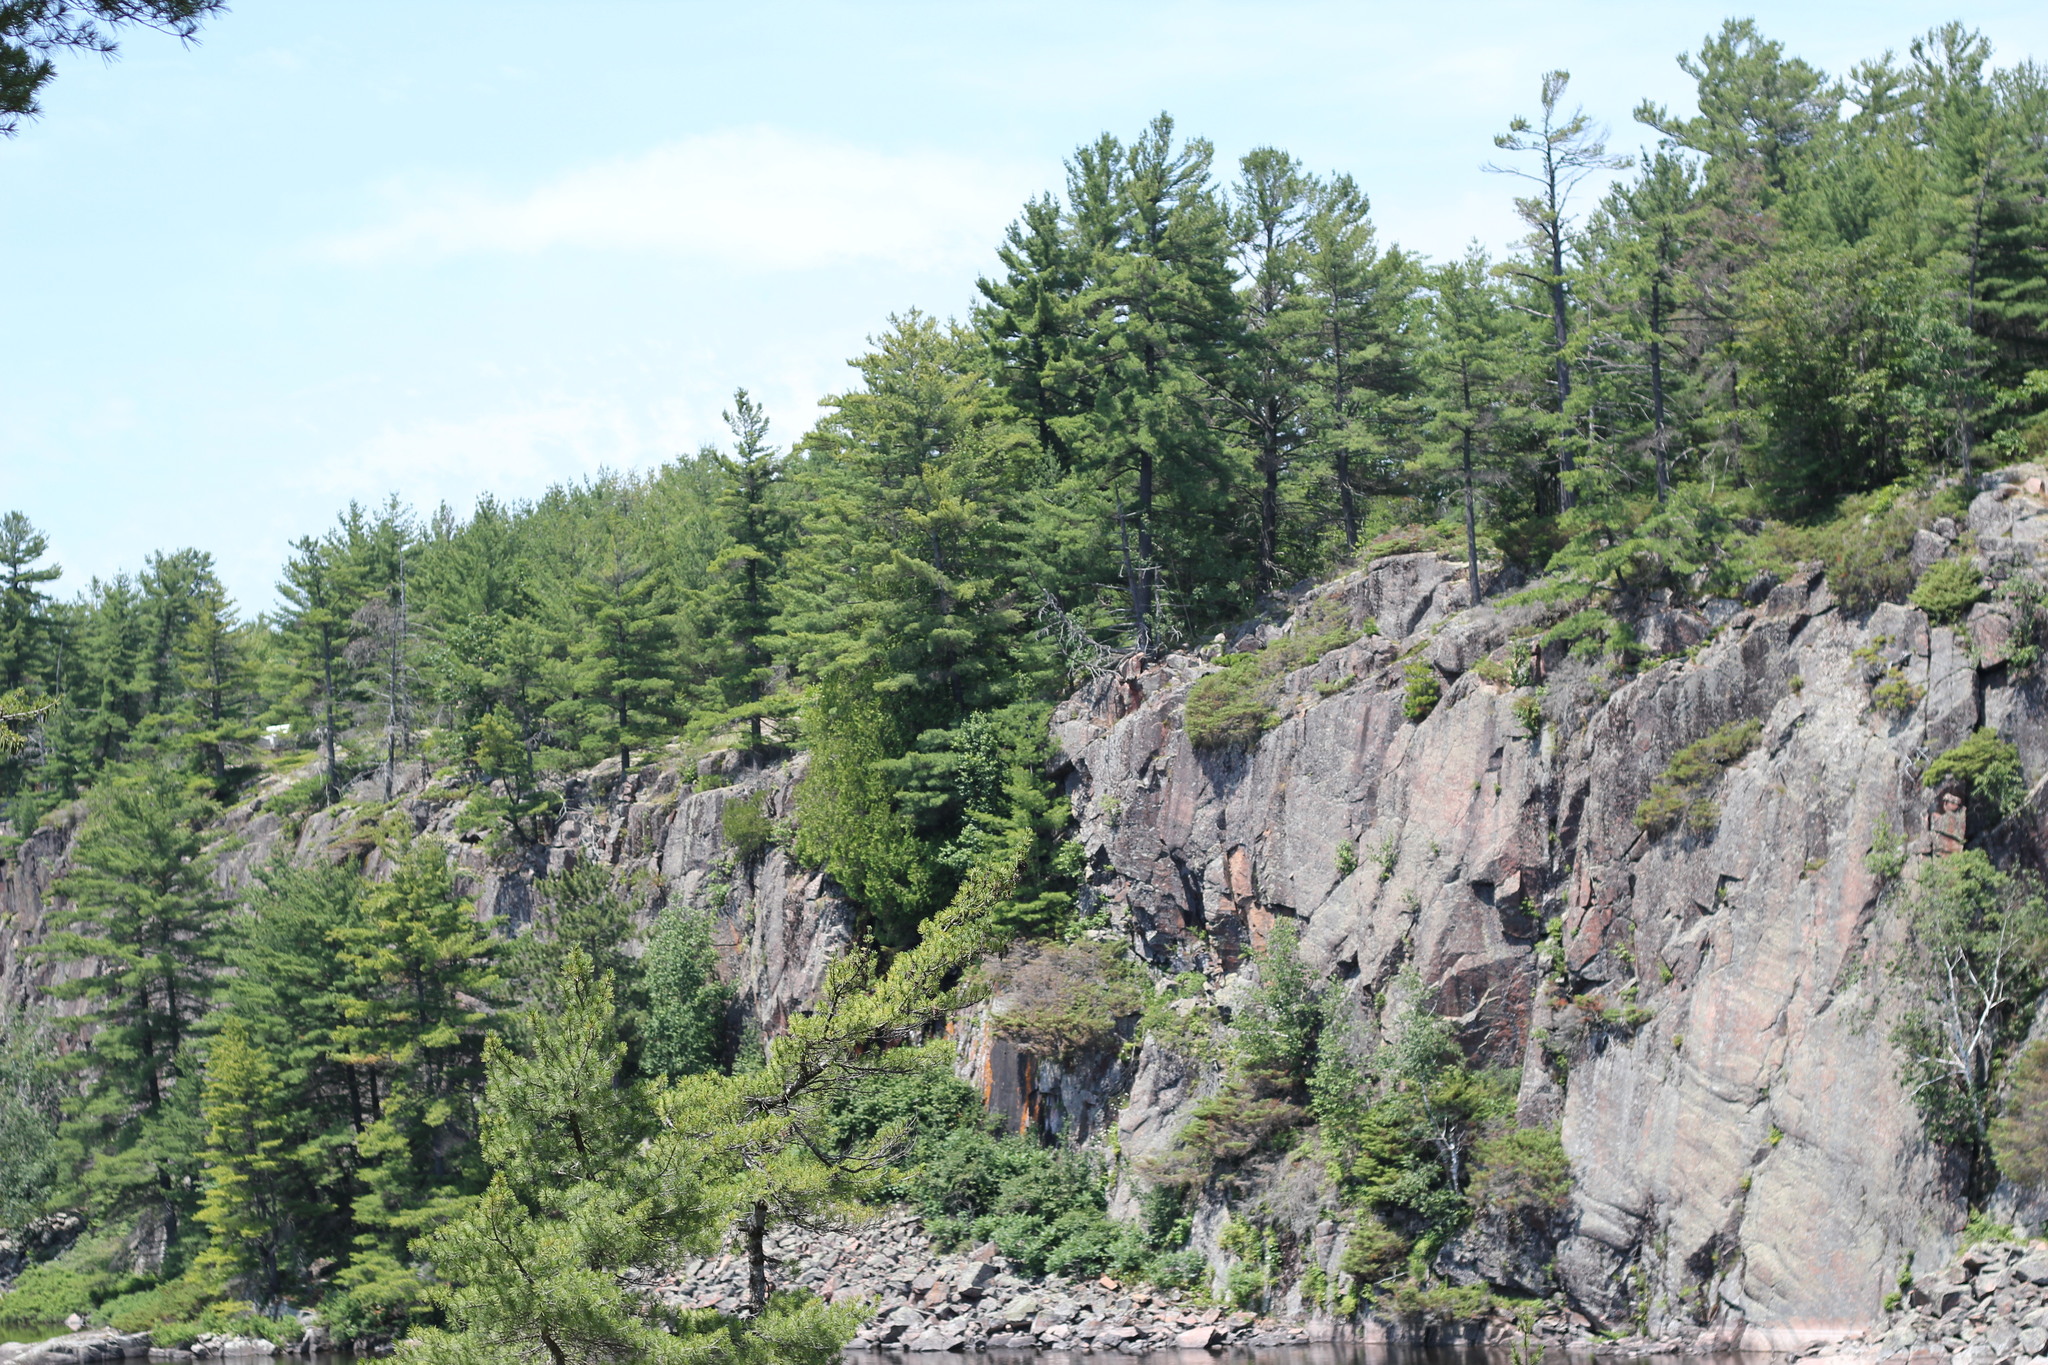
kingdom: Plantae
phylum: Tracheophyta
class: Pinopsida
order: Pinales
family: Pinaceae
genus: Pinus
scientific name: Pinus strobus
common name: Weymouth pine
